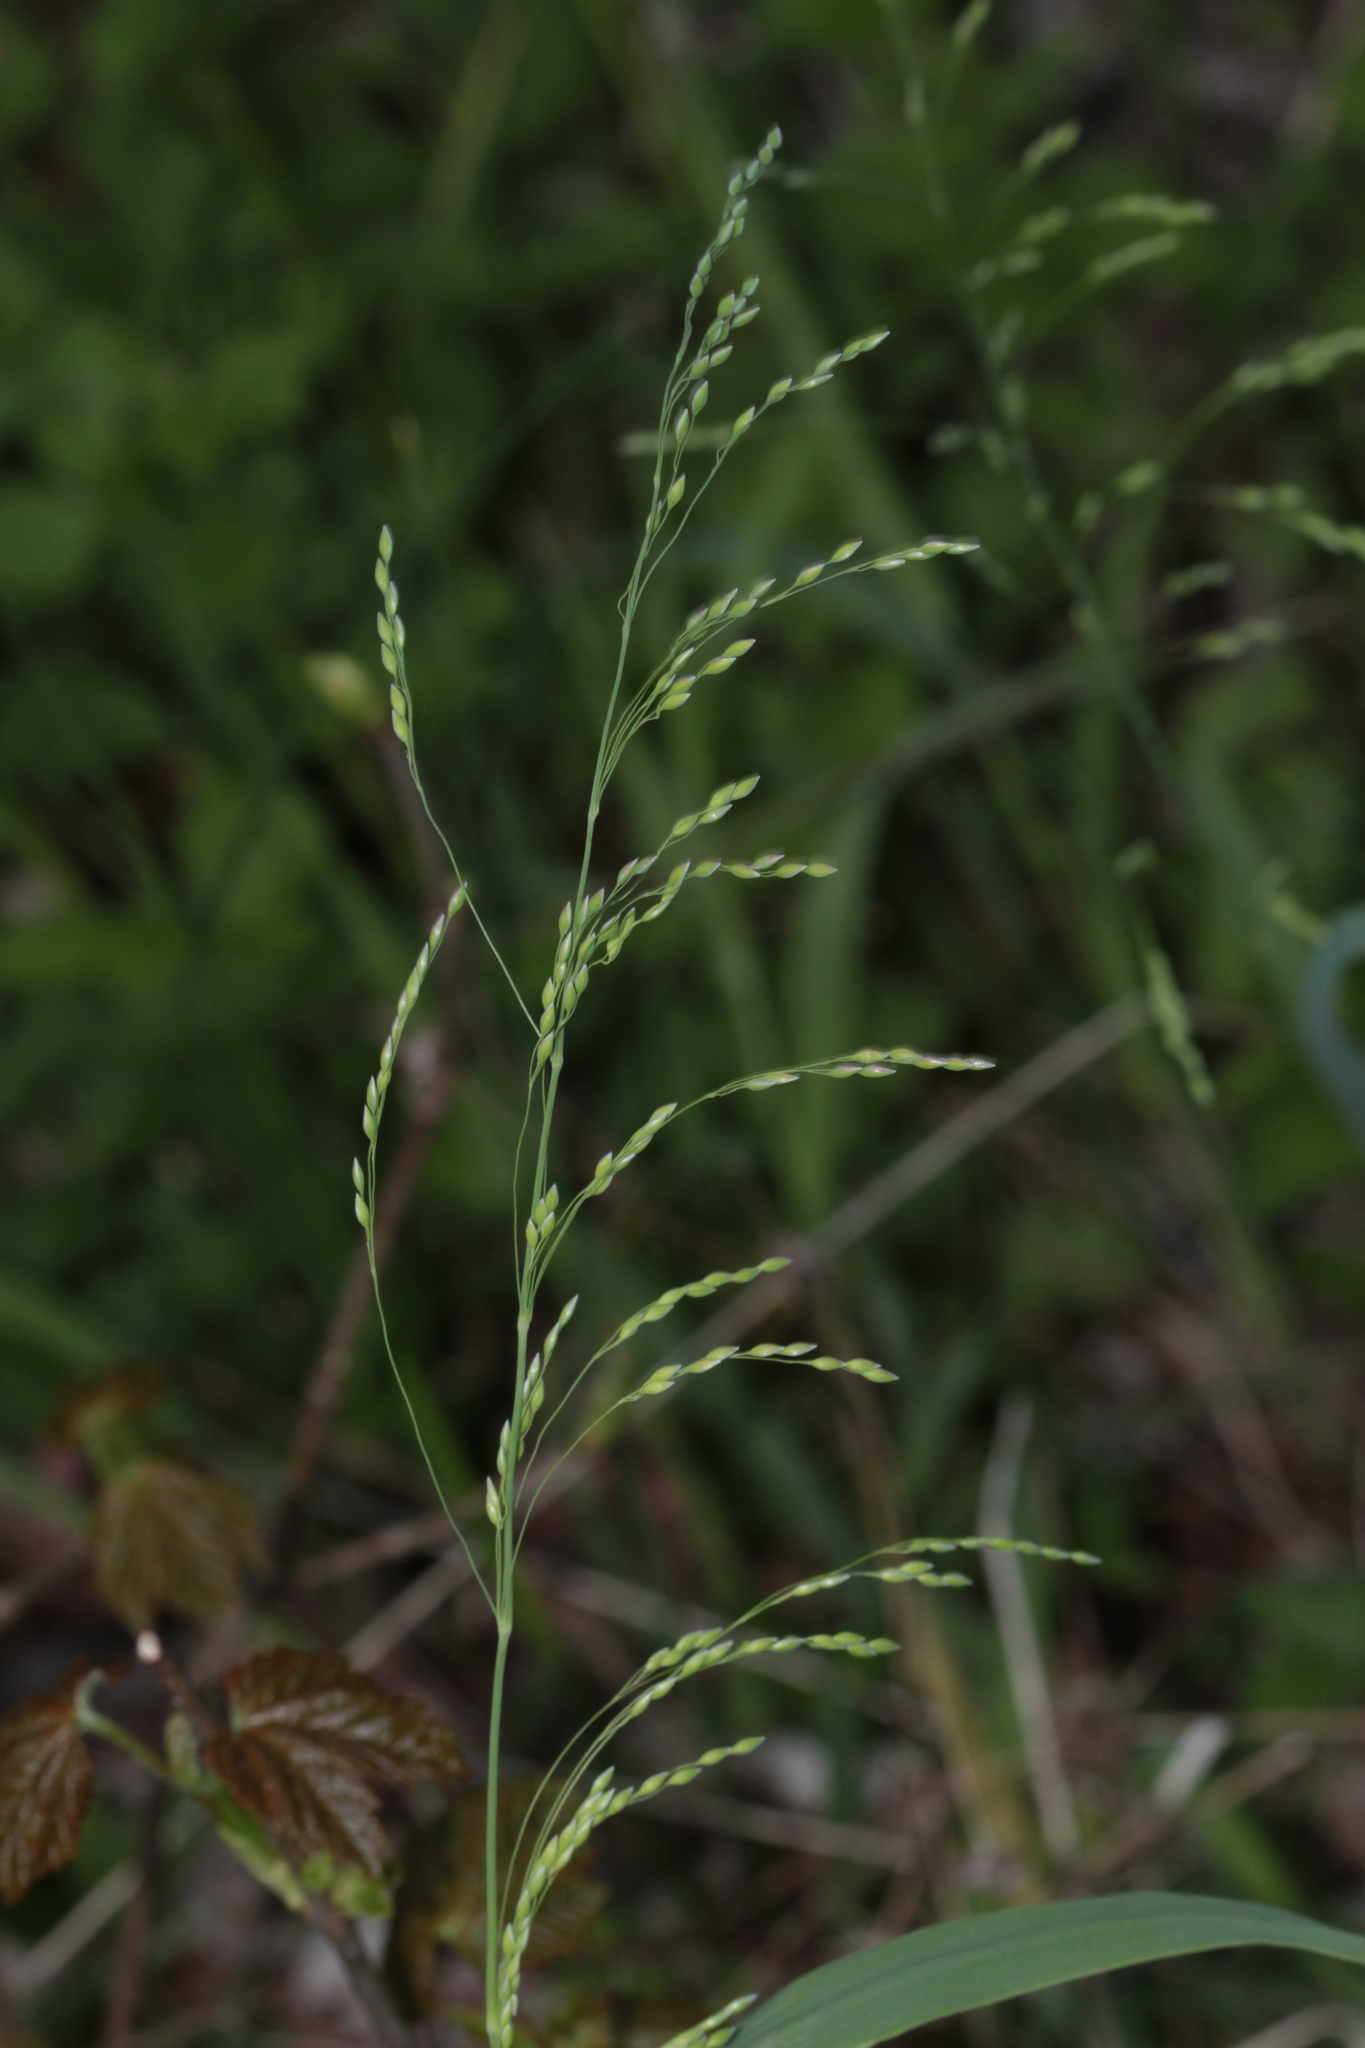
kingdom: Plantae
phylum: Tracheophyta
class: Liliopsida
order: Poales
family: Poaceae
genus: Milium
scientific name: Milium effusum
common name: Wood millet
